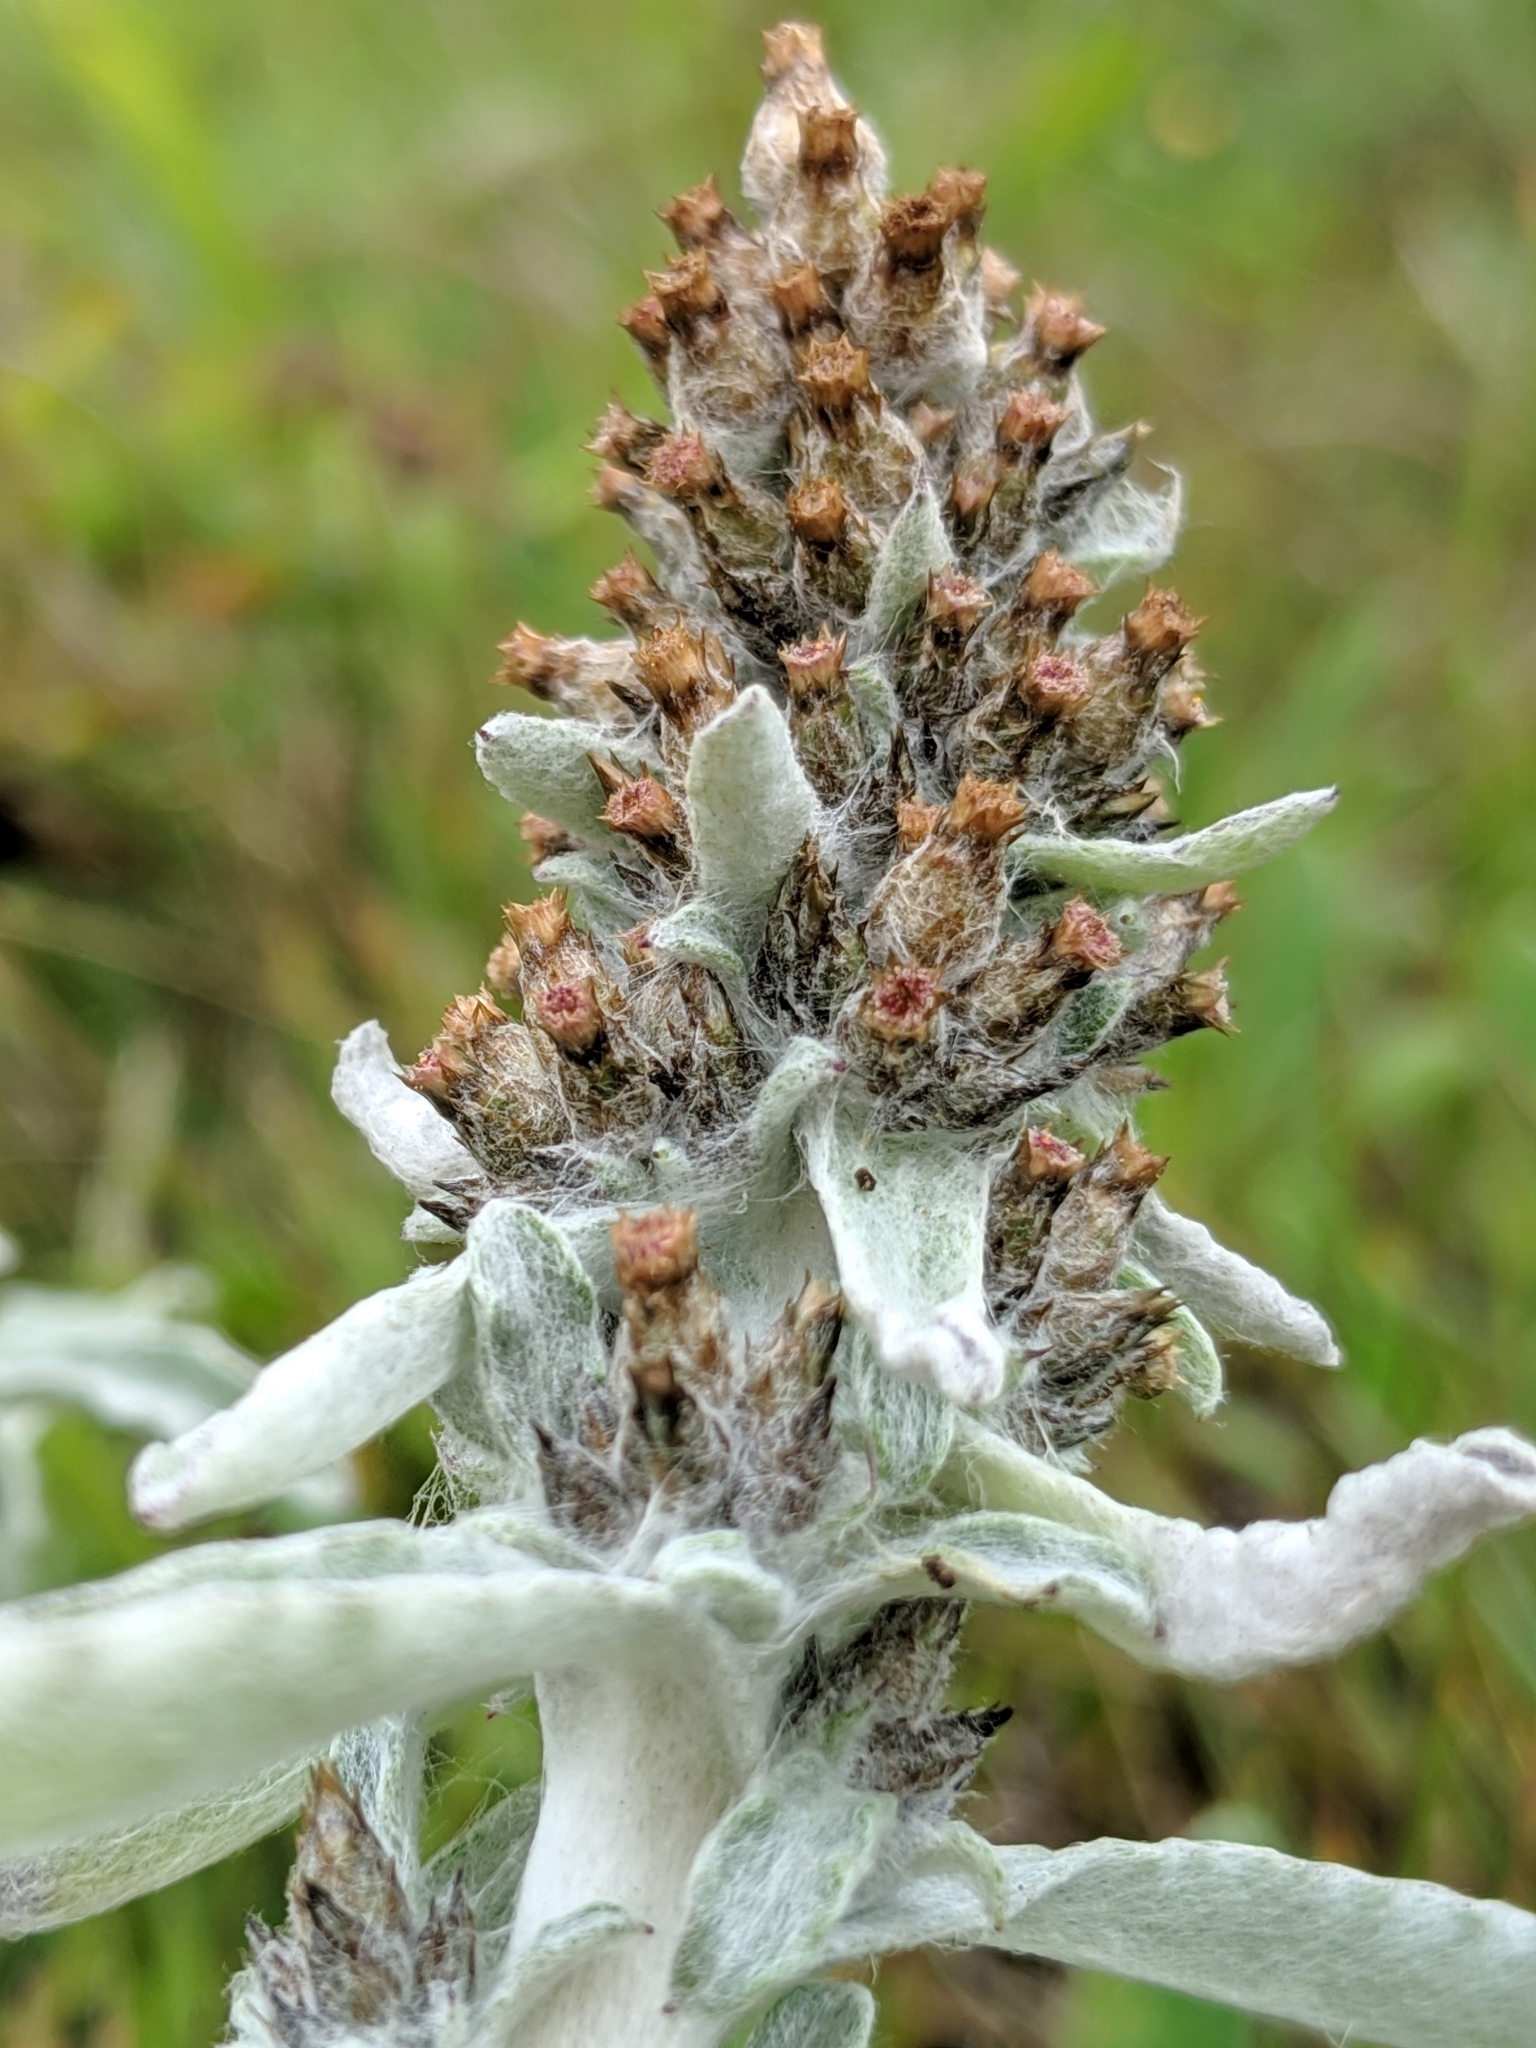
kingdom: Plantae
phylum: Tracheophyta
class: Magnoliopsida
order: Asterales
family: Asteraceae
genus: Gamochaeta
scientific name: Gamochaeta ustulata
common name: Pacific cudweed
